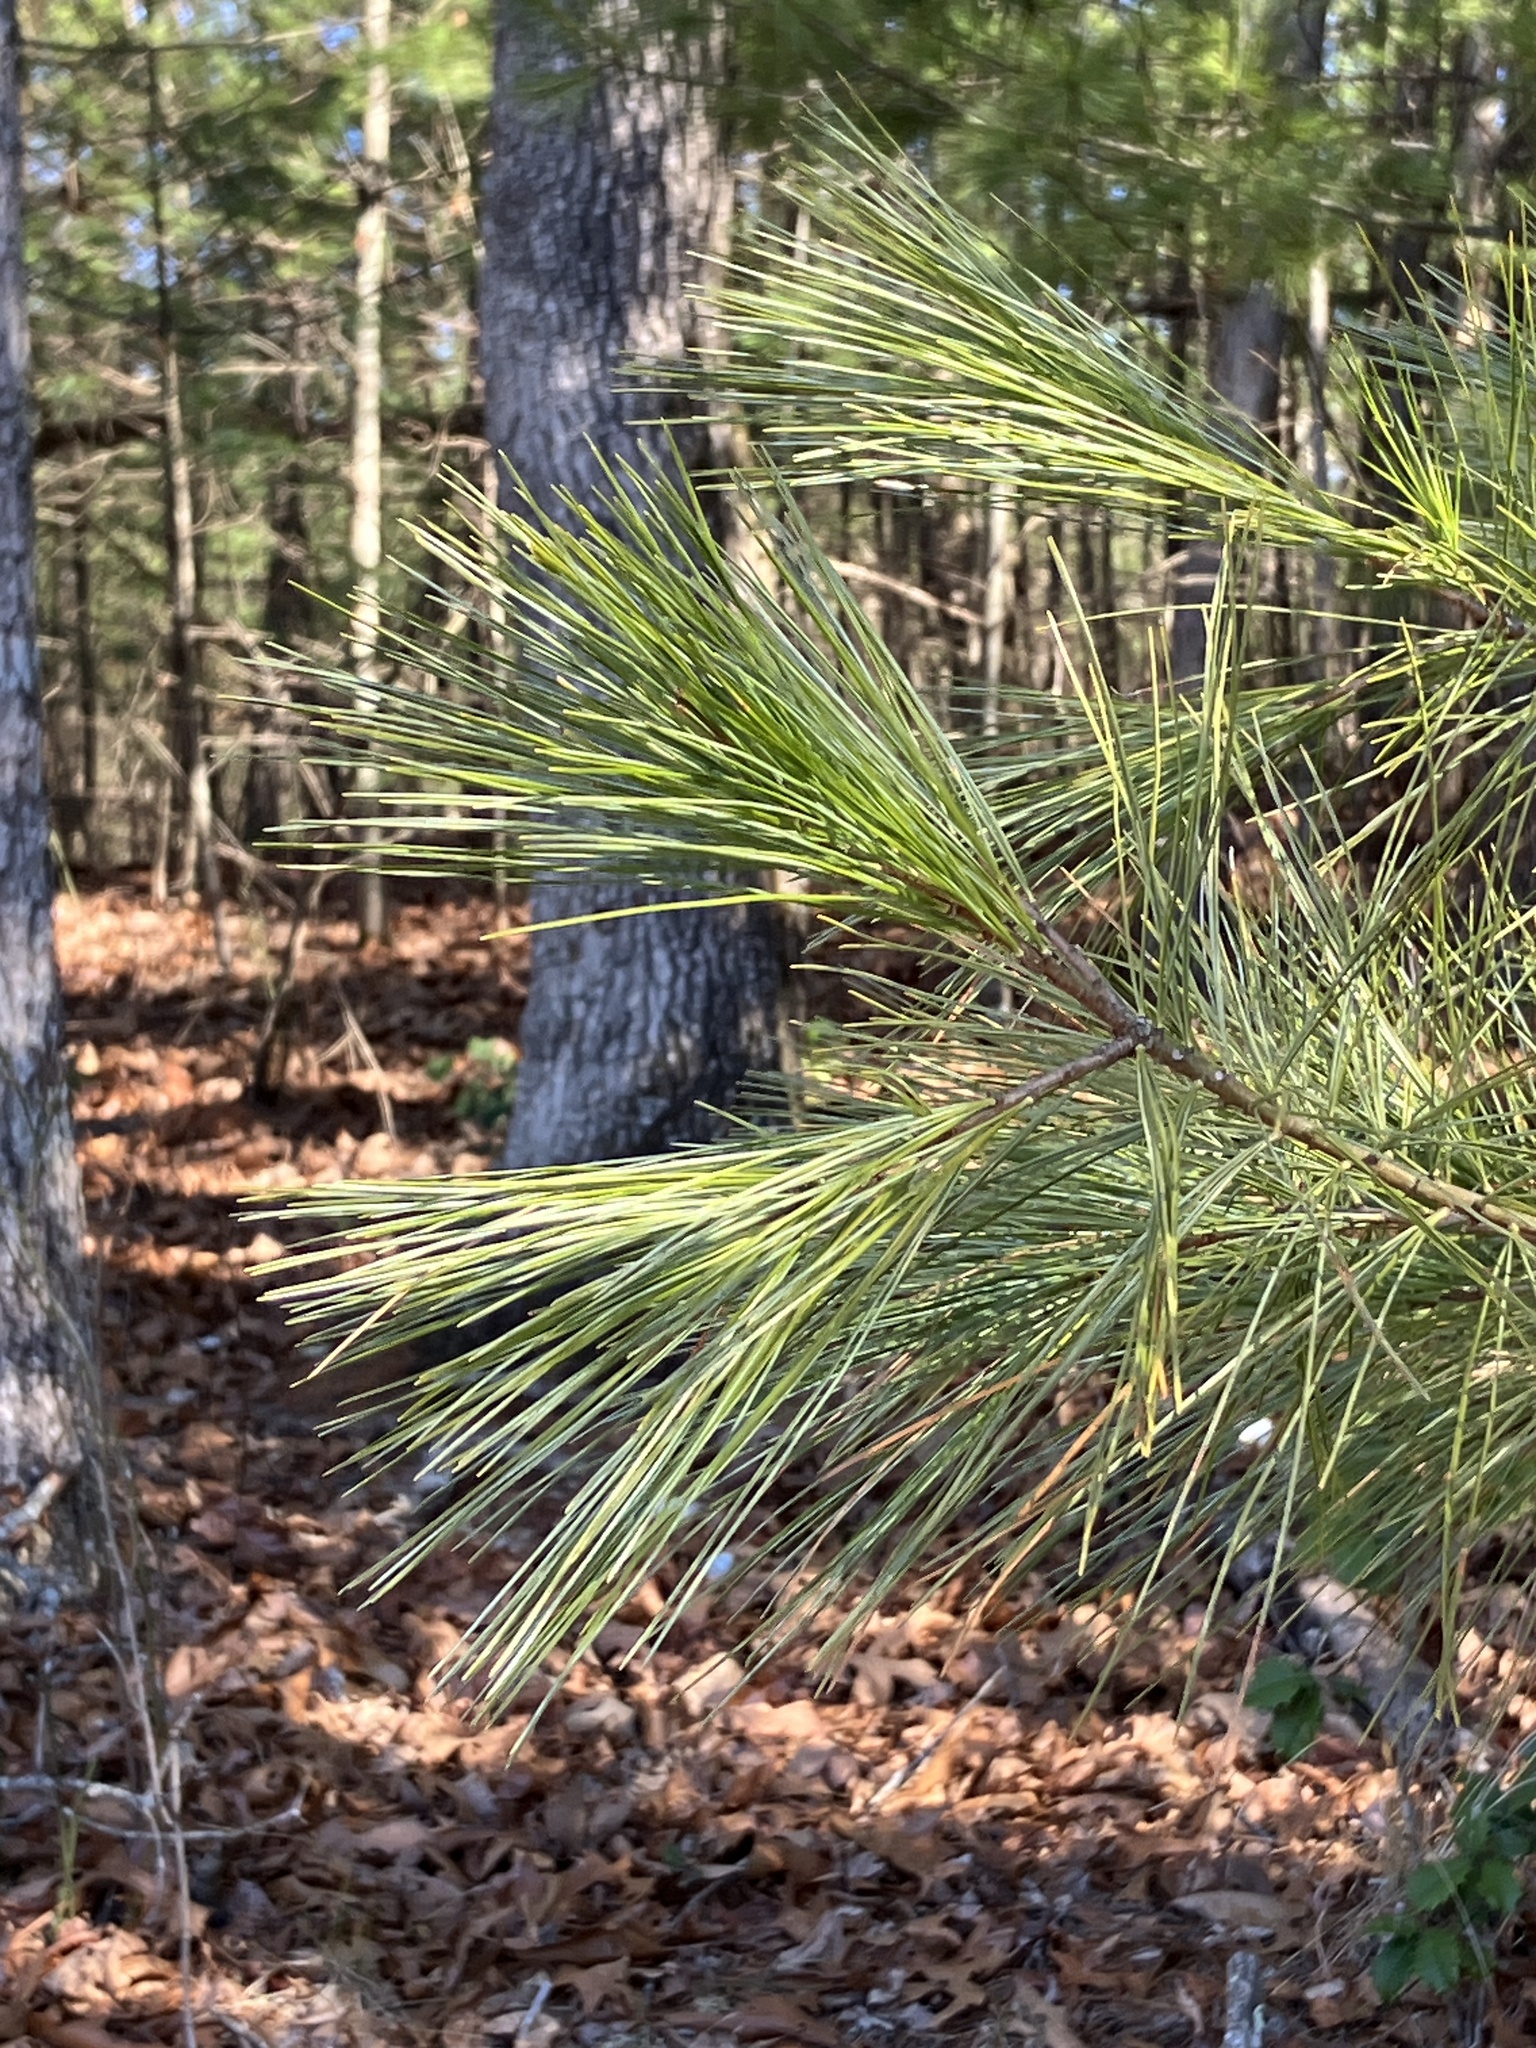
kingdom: Plantae
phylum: Tracheophyta
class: Pinopsida
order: Pinales
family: Pinaceae
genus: Pinus
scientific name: Pinus strobus
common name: Weymouth pine
